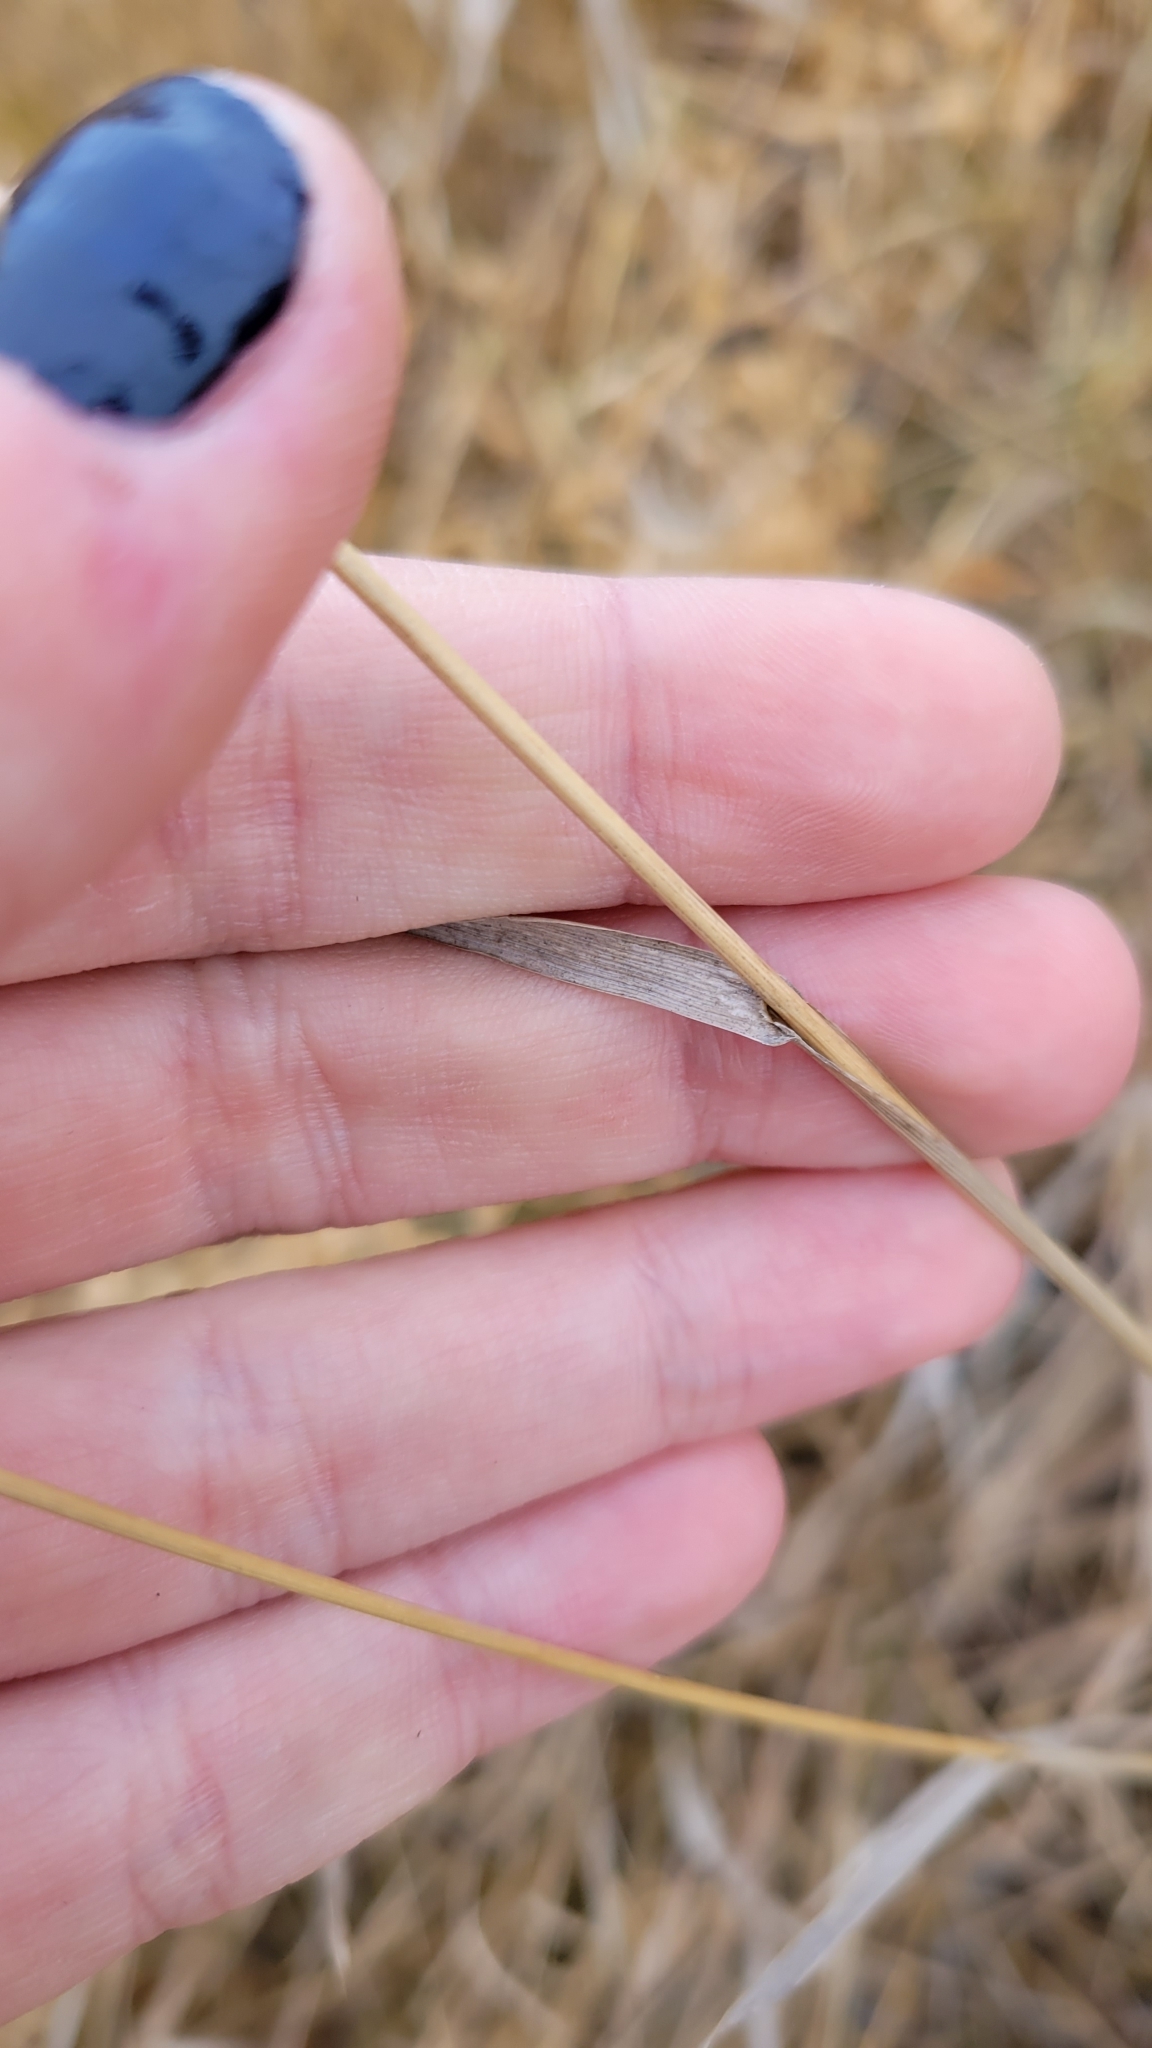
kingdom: Plantae
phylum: Tracheophyta
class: Liliopsida
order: Poales
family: Poaceae
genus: Bromus
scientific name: Bromus inermis
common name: Smooth brome
